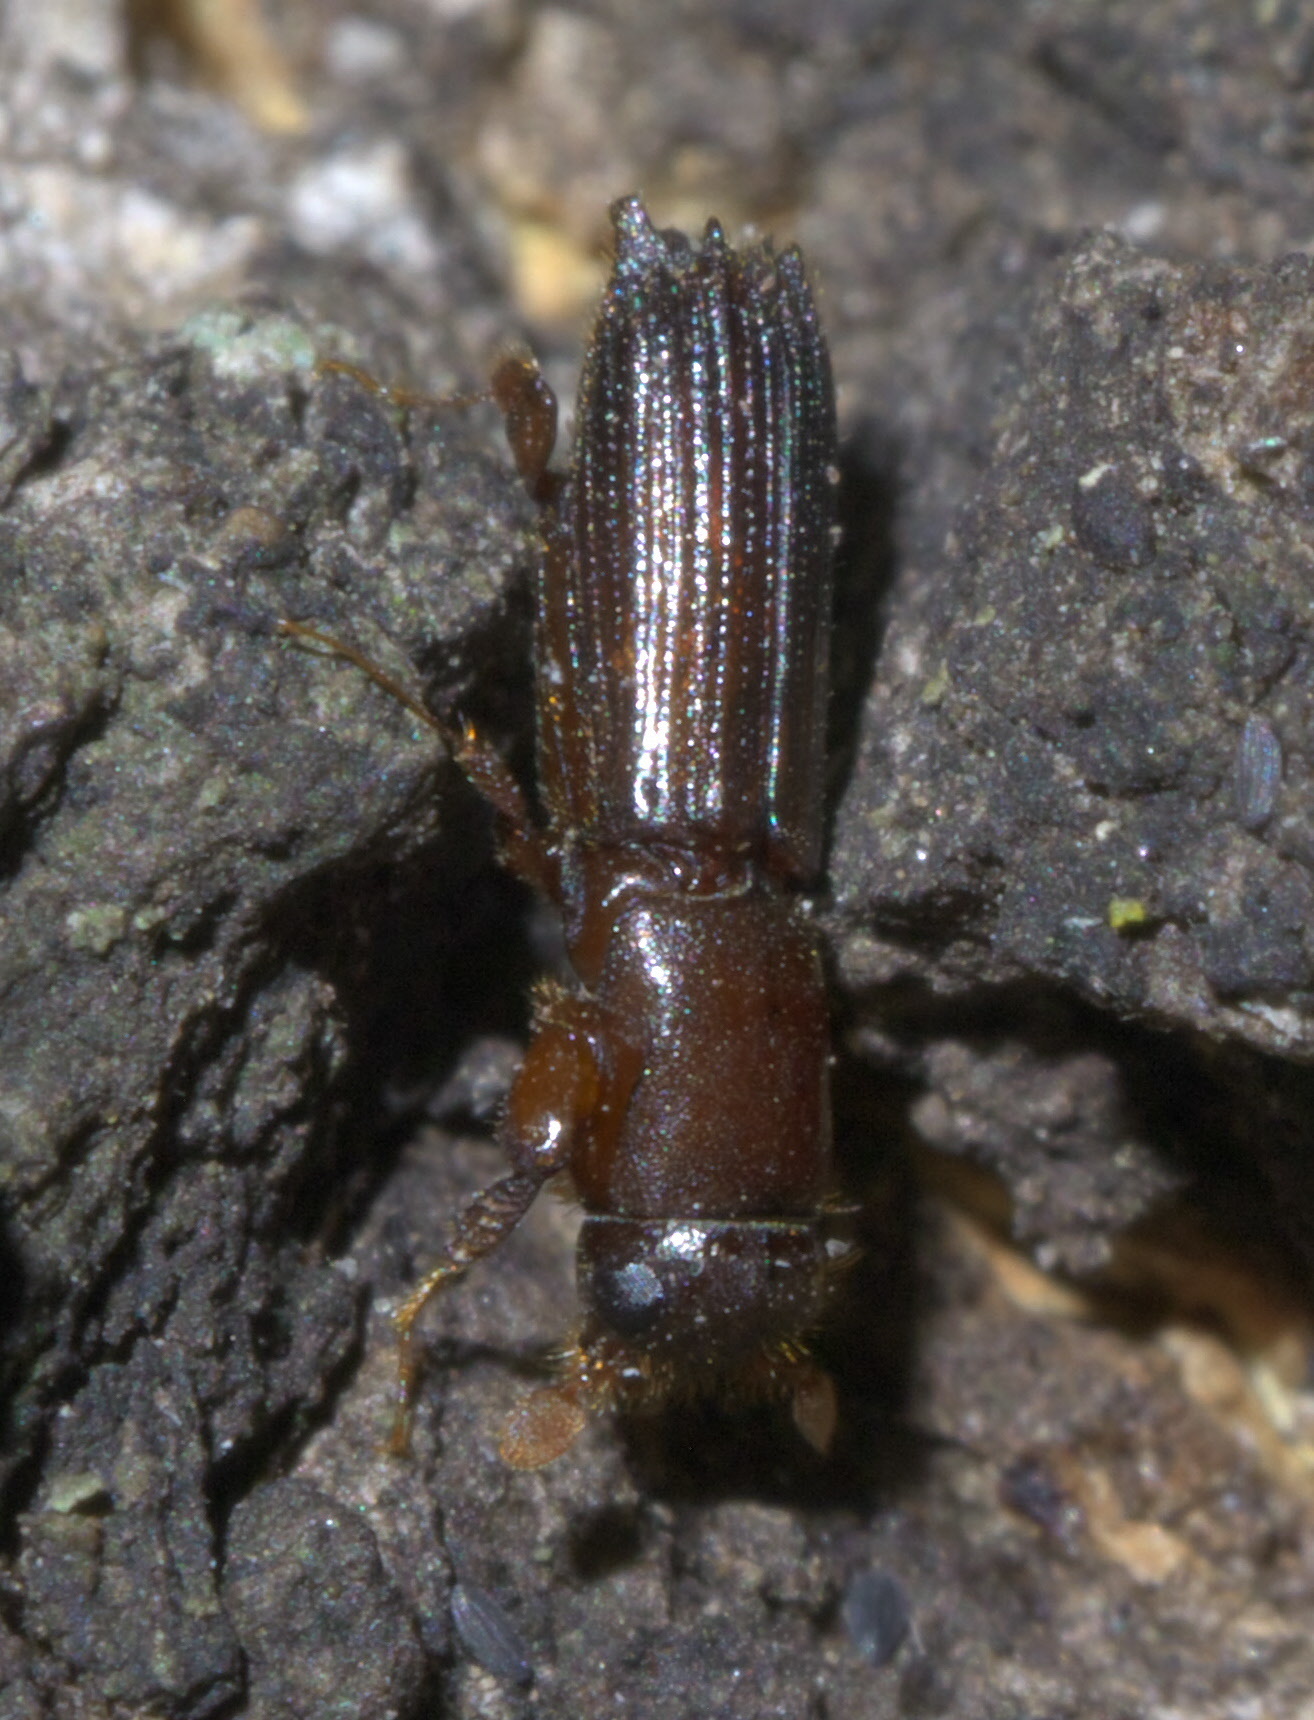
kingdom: Animalia
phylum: Arthropoda
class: Insecta
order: Coleoptera
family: Curculionidae
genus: Oxoplatypus
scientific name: Oxoplatypus quadridentatus
